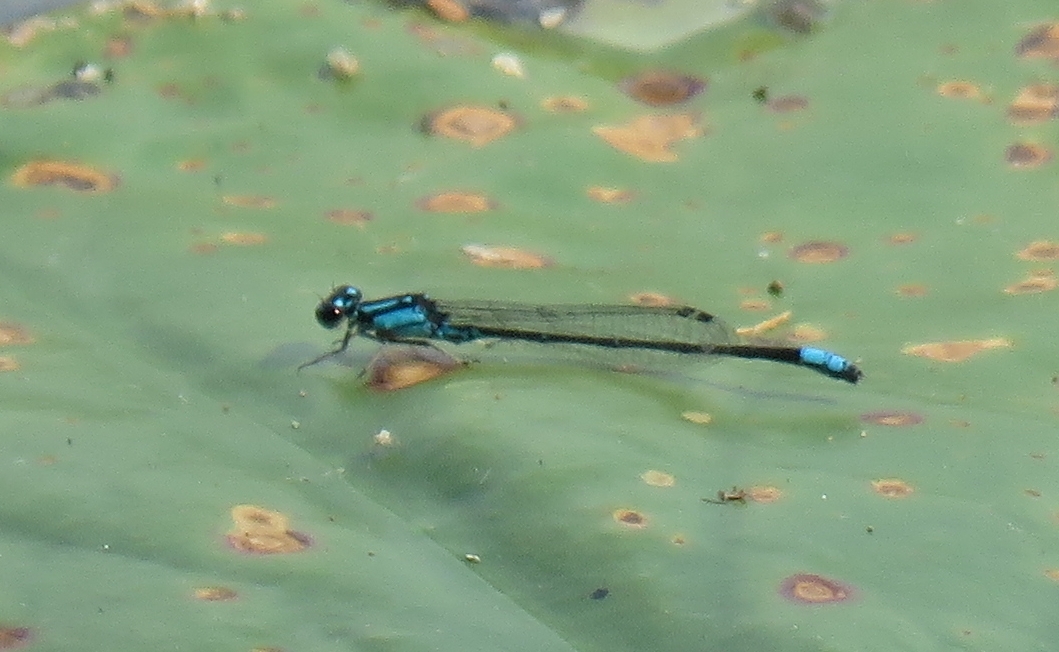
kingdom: Animalia
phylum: Arthropoda
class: Insecta
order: Odonata
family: Coenagrionidae
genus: Enallagma
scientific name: Enallagma geminatum
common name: Skimming bluet
